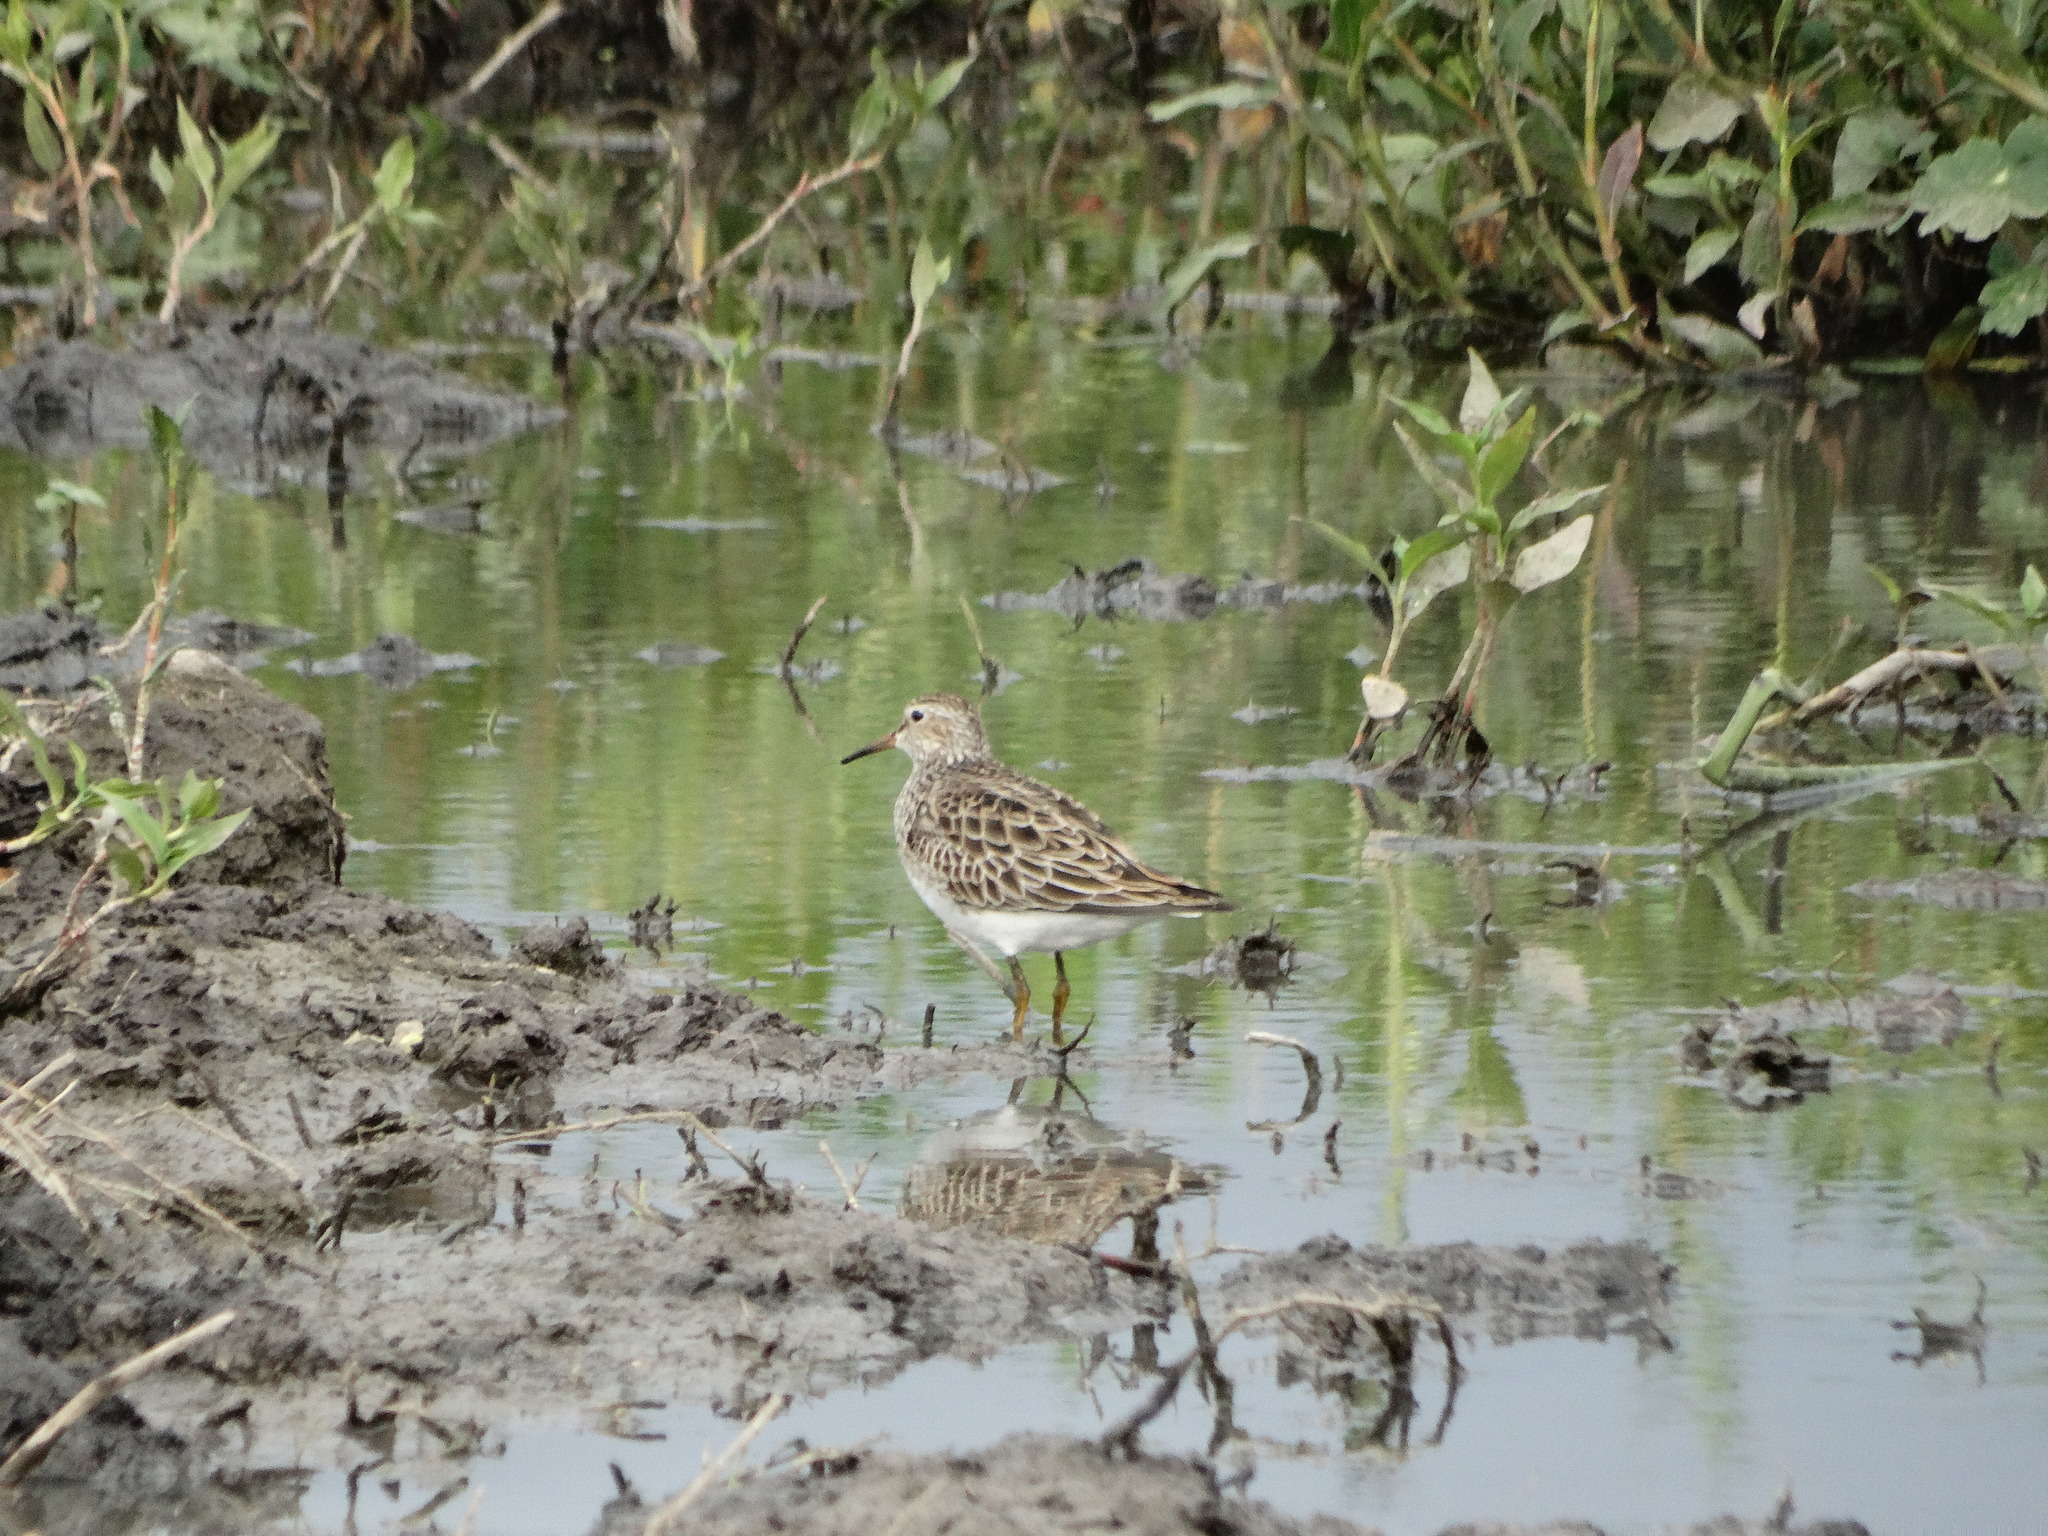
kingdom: Animalia
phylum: Chordata
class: Aves
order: Charadriiformes
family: Scolopacidae
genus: Calidris
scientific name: Calidris melanotos
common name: Pectoral sandpiper
